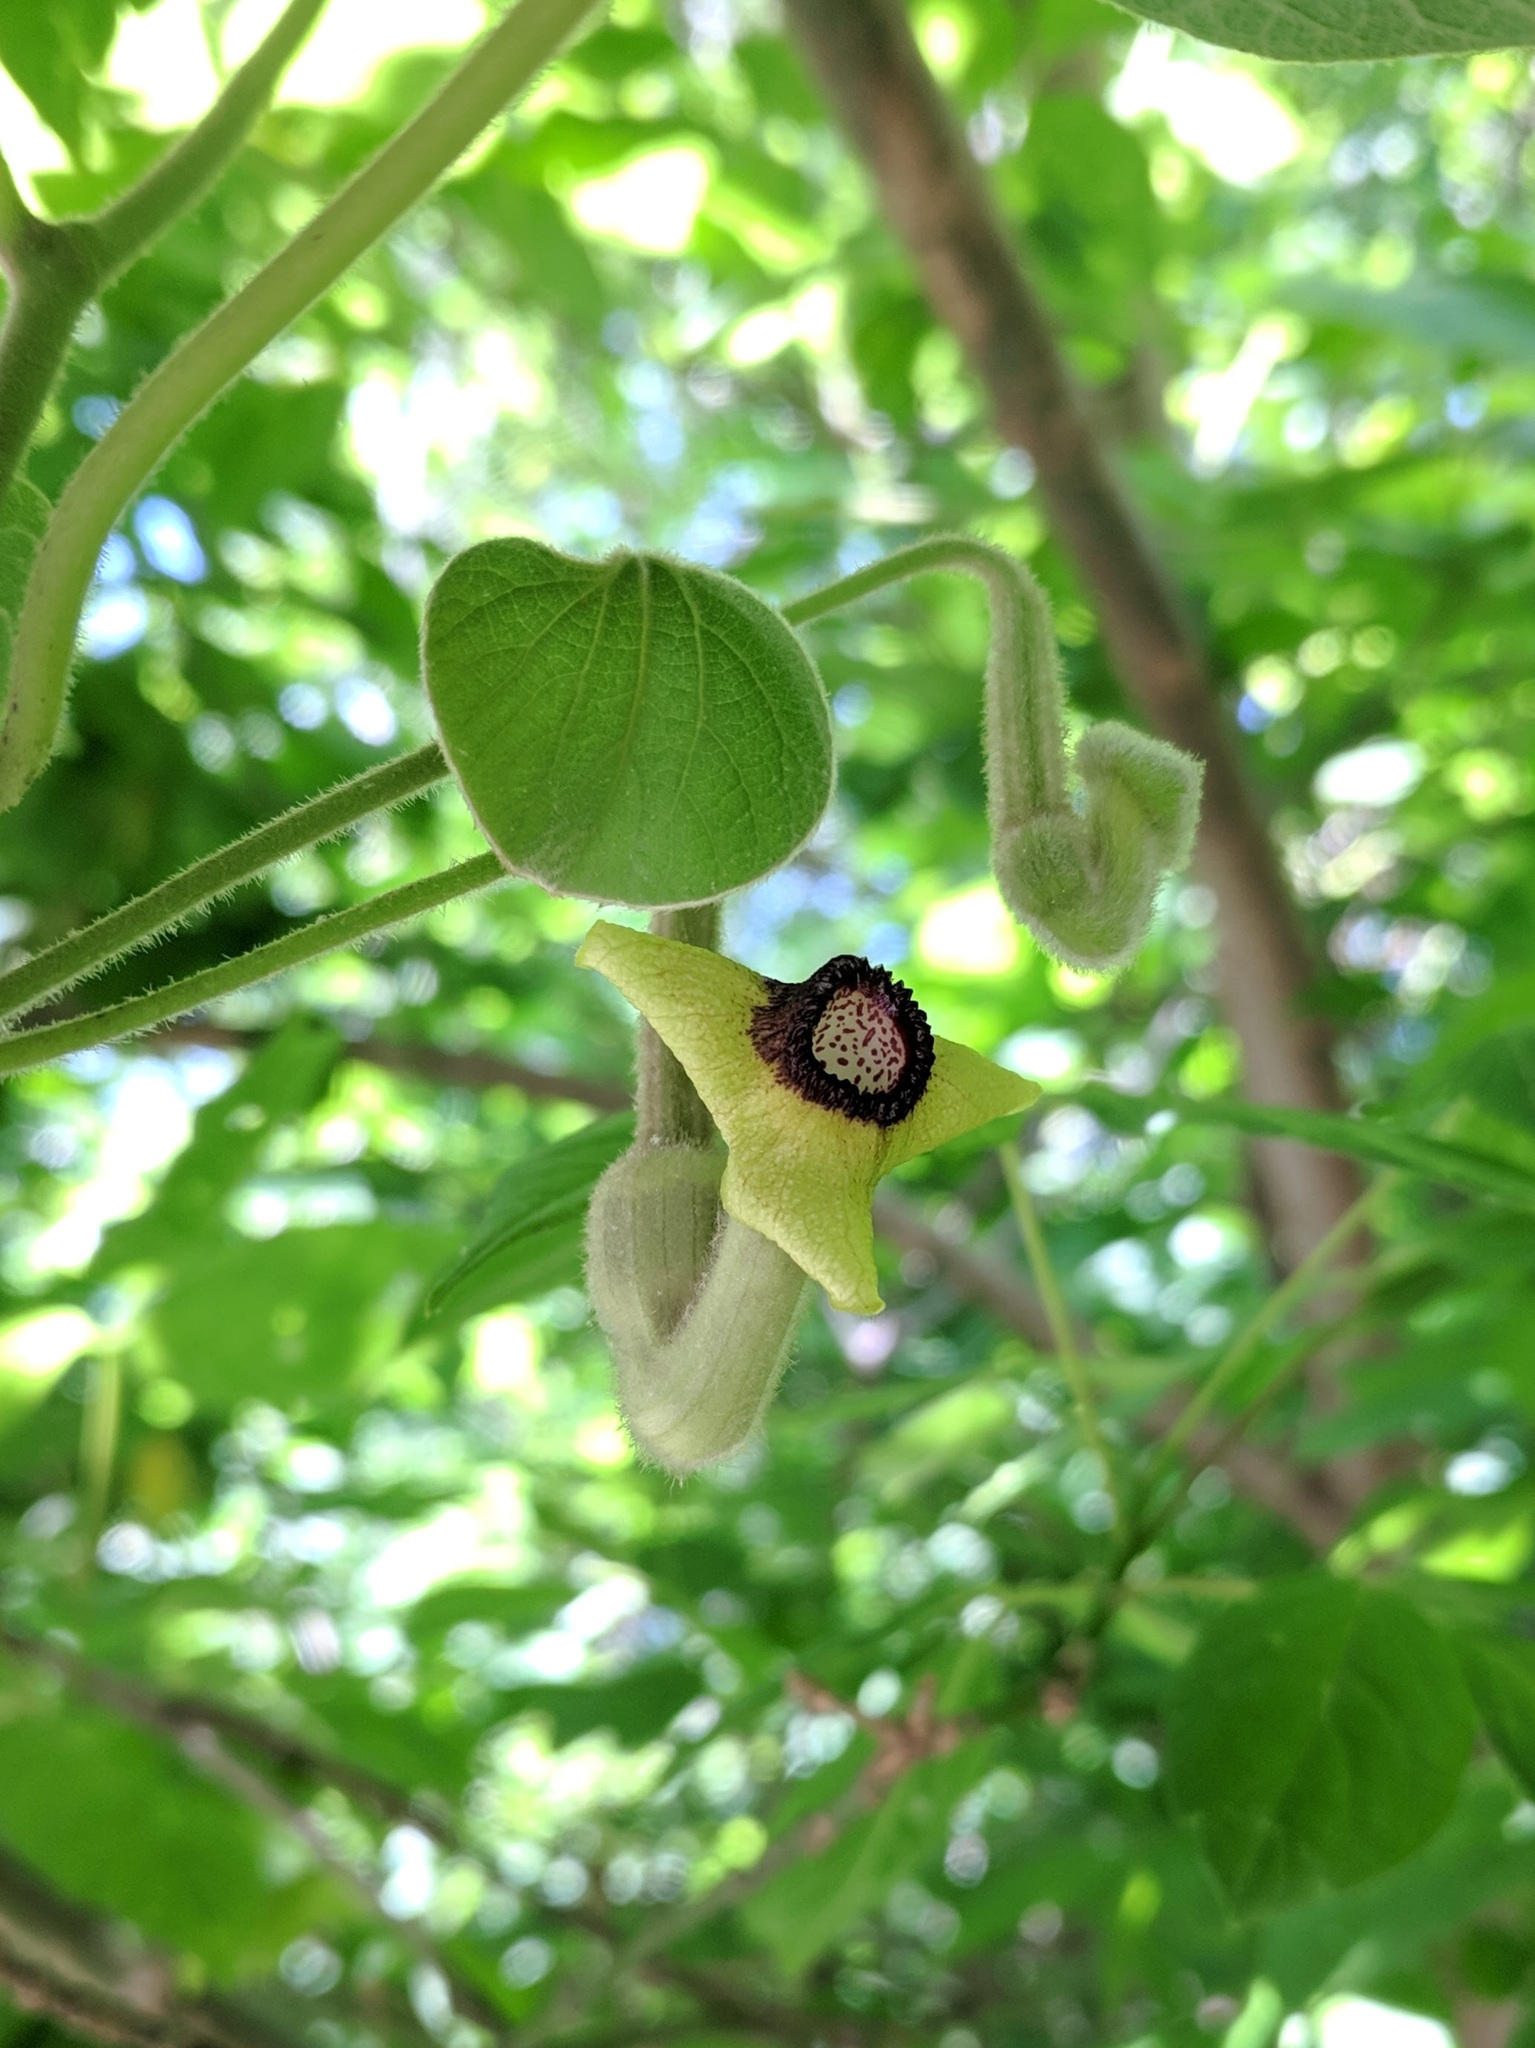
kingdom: Plantae
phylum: Tracheophyta
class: Magnoliopsida
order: Piperales
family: Aristolochiaceae
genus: Isotrema
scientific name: Isotrema tomentosum
